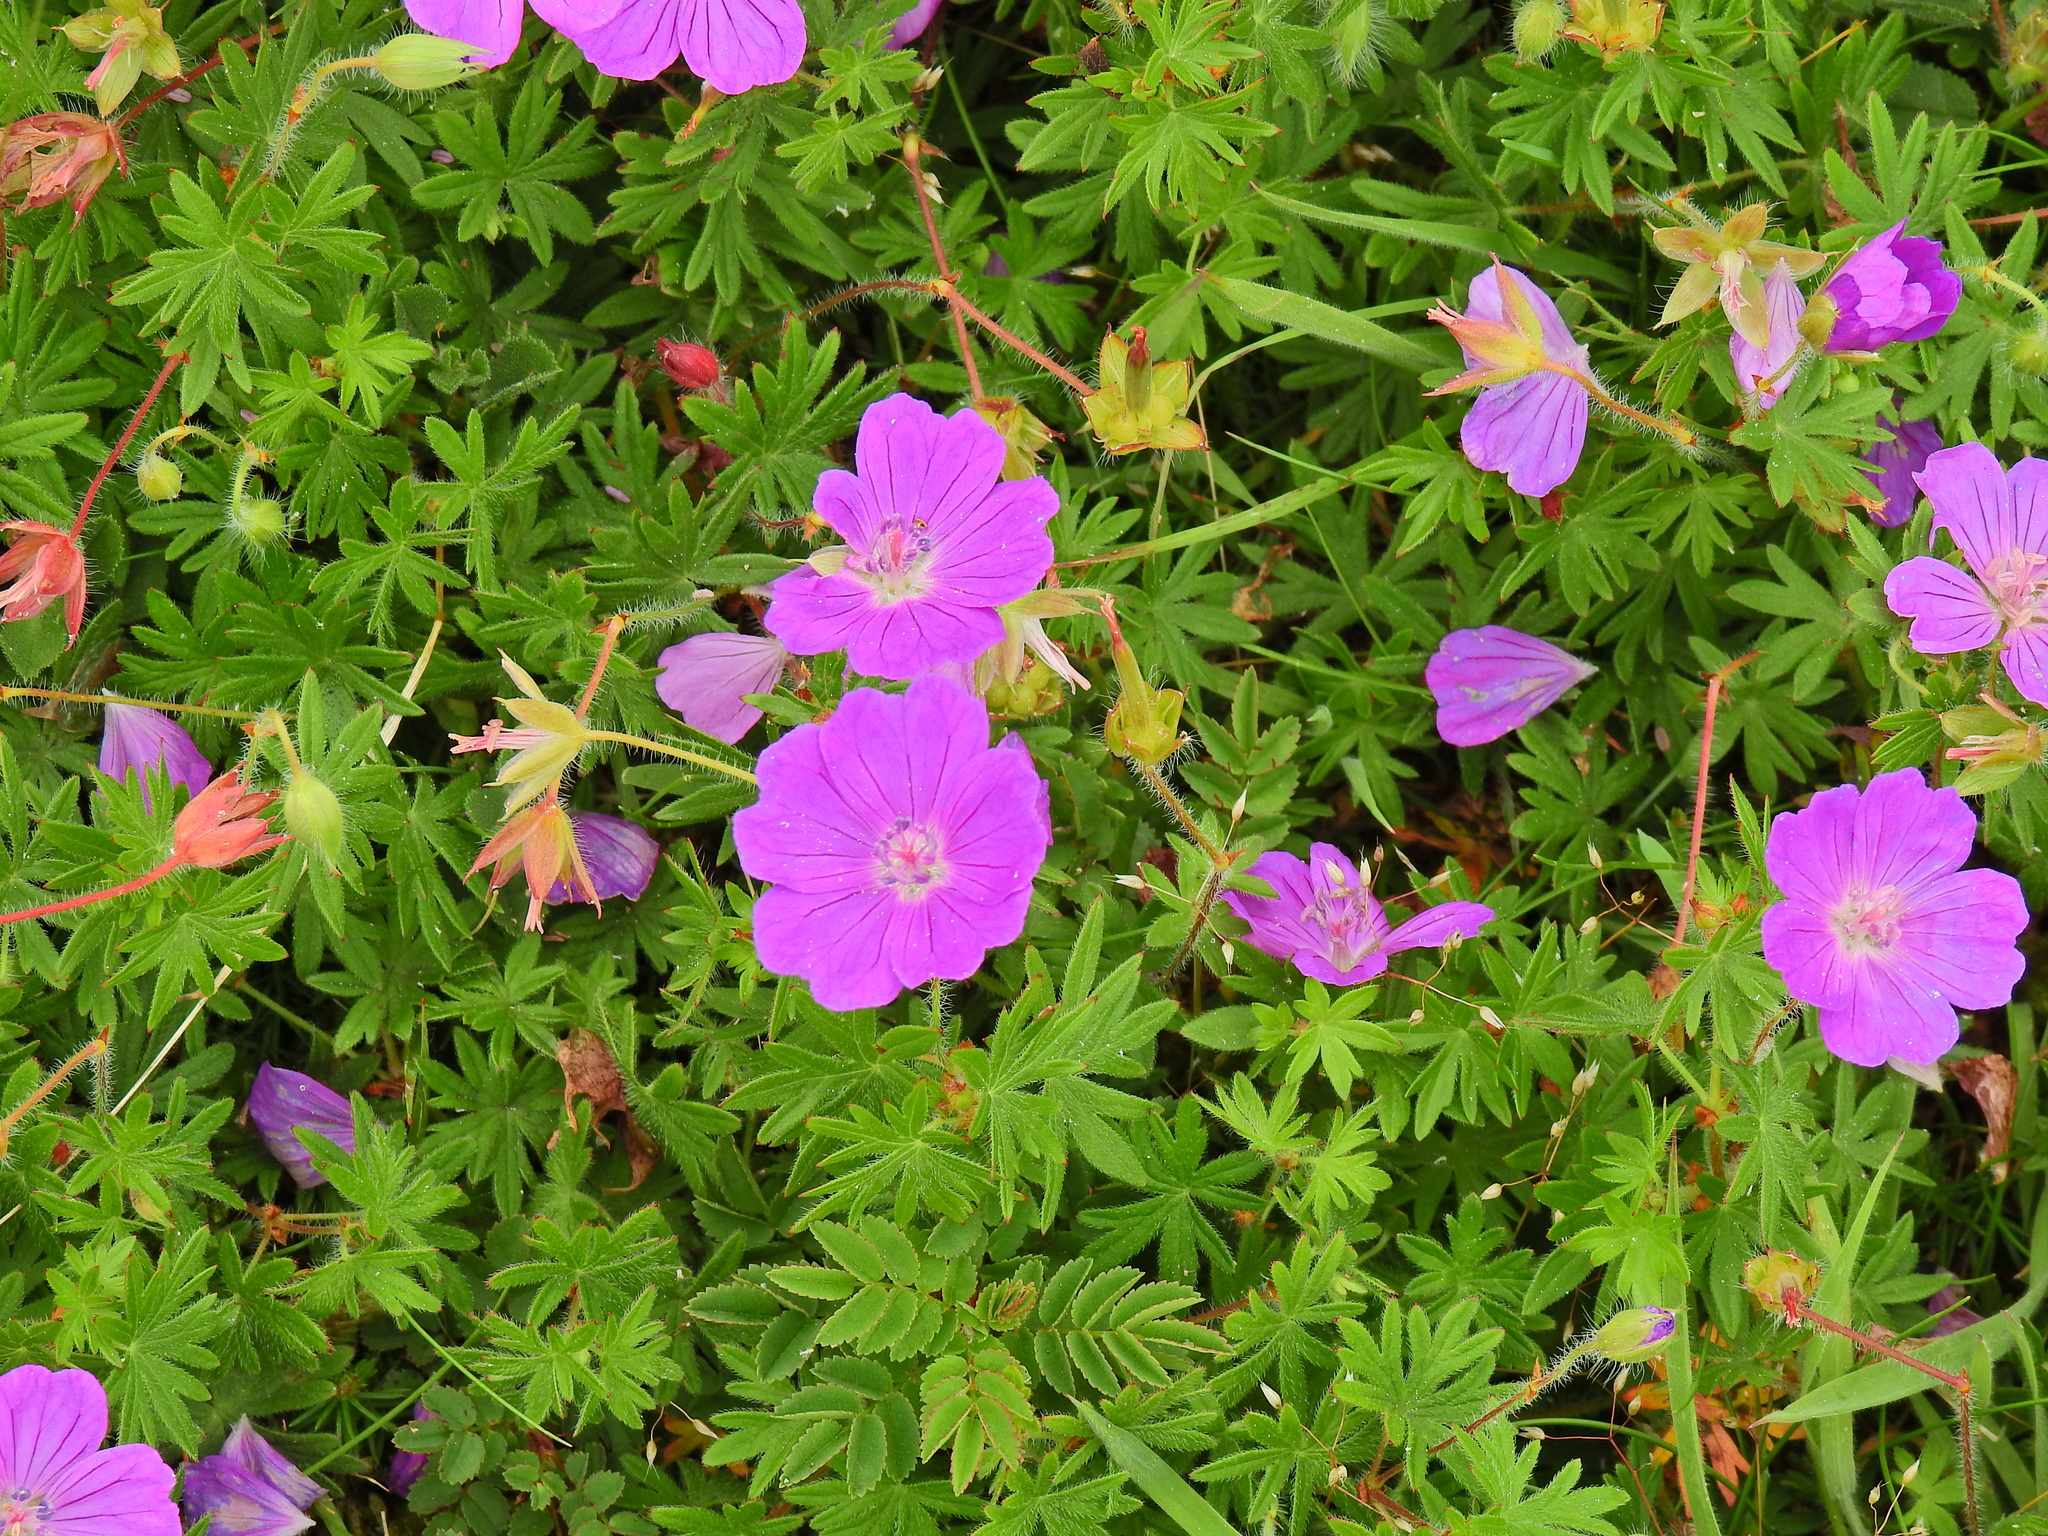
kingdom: Plantae
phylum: Tracheophyta
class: Magnoliopsida
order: Geraniales
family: Geraniaceae
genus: Geranium
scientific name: Geranium sanguineum
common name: Bloody crane's-bill
